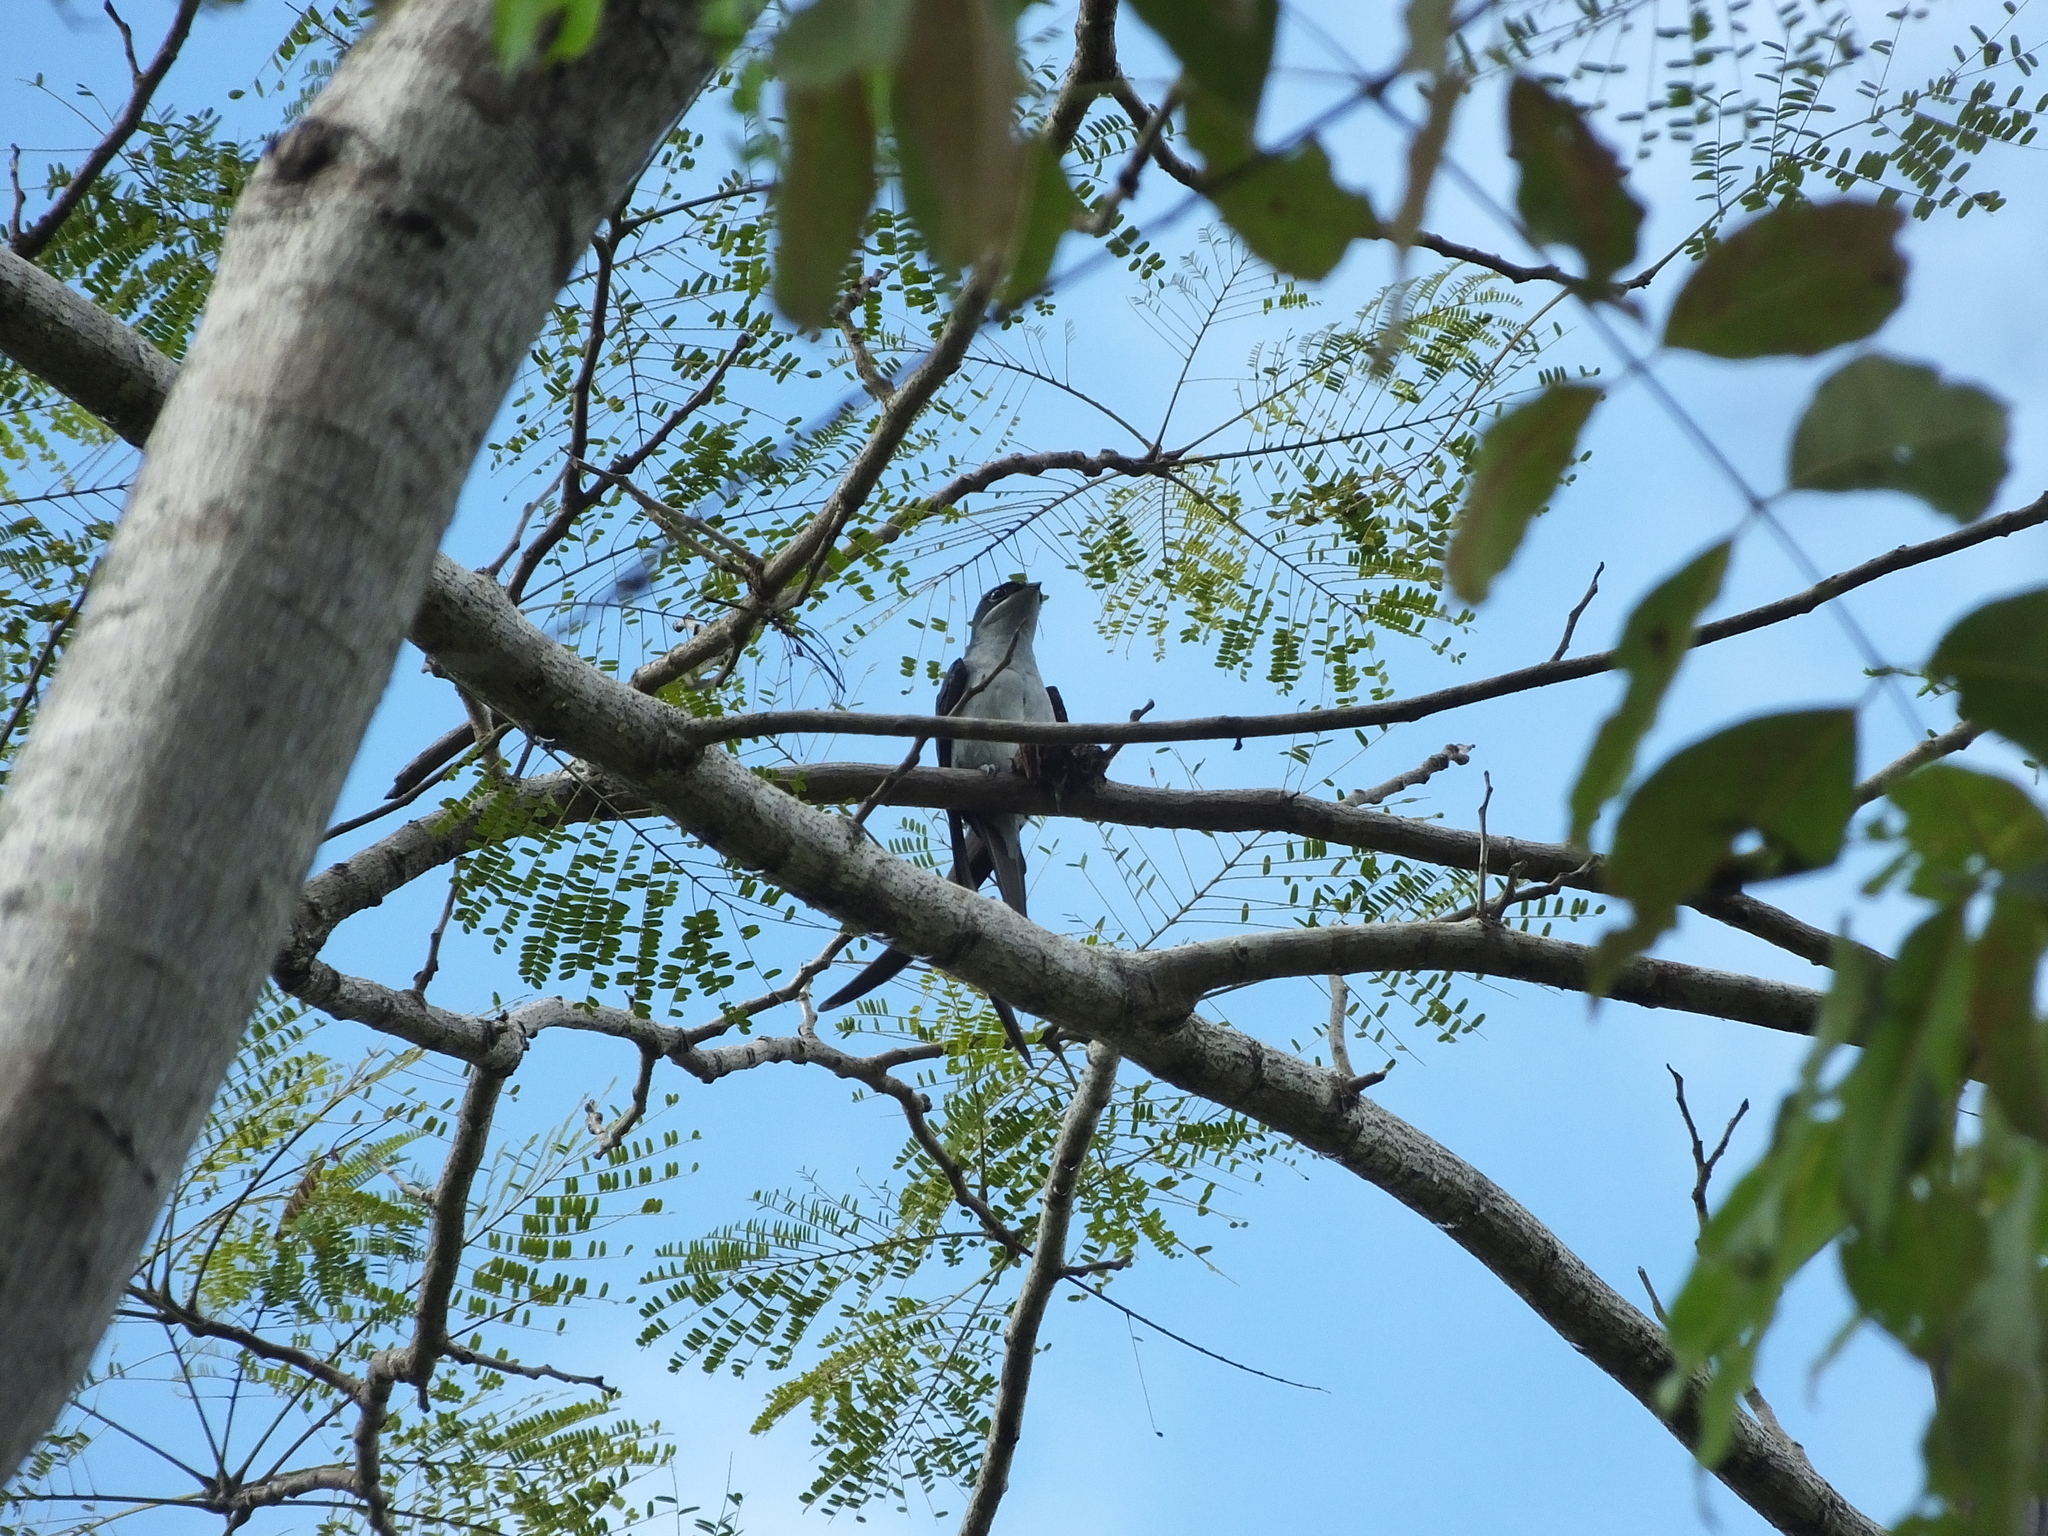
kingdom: Animalia
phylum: Chordata
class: Aves
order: Apodiformes
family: Hemiprocnidae
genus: Hemiprocne
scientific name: Hemiprocne longipennis
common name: Grey-rumped treeswift
